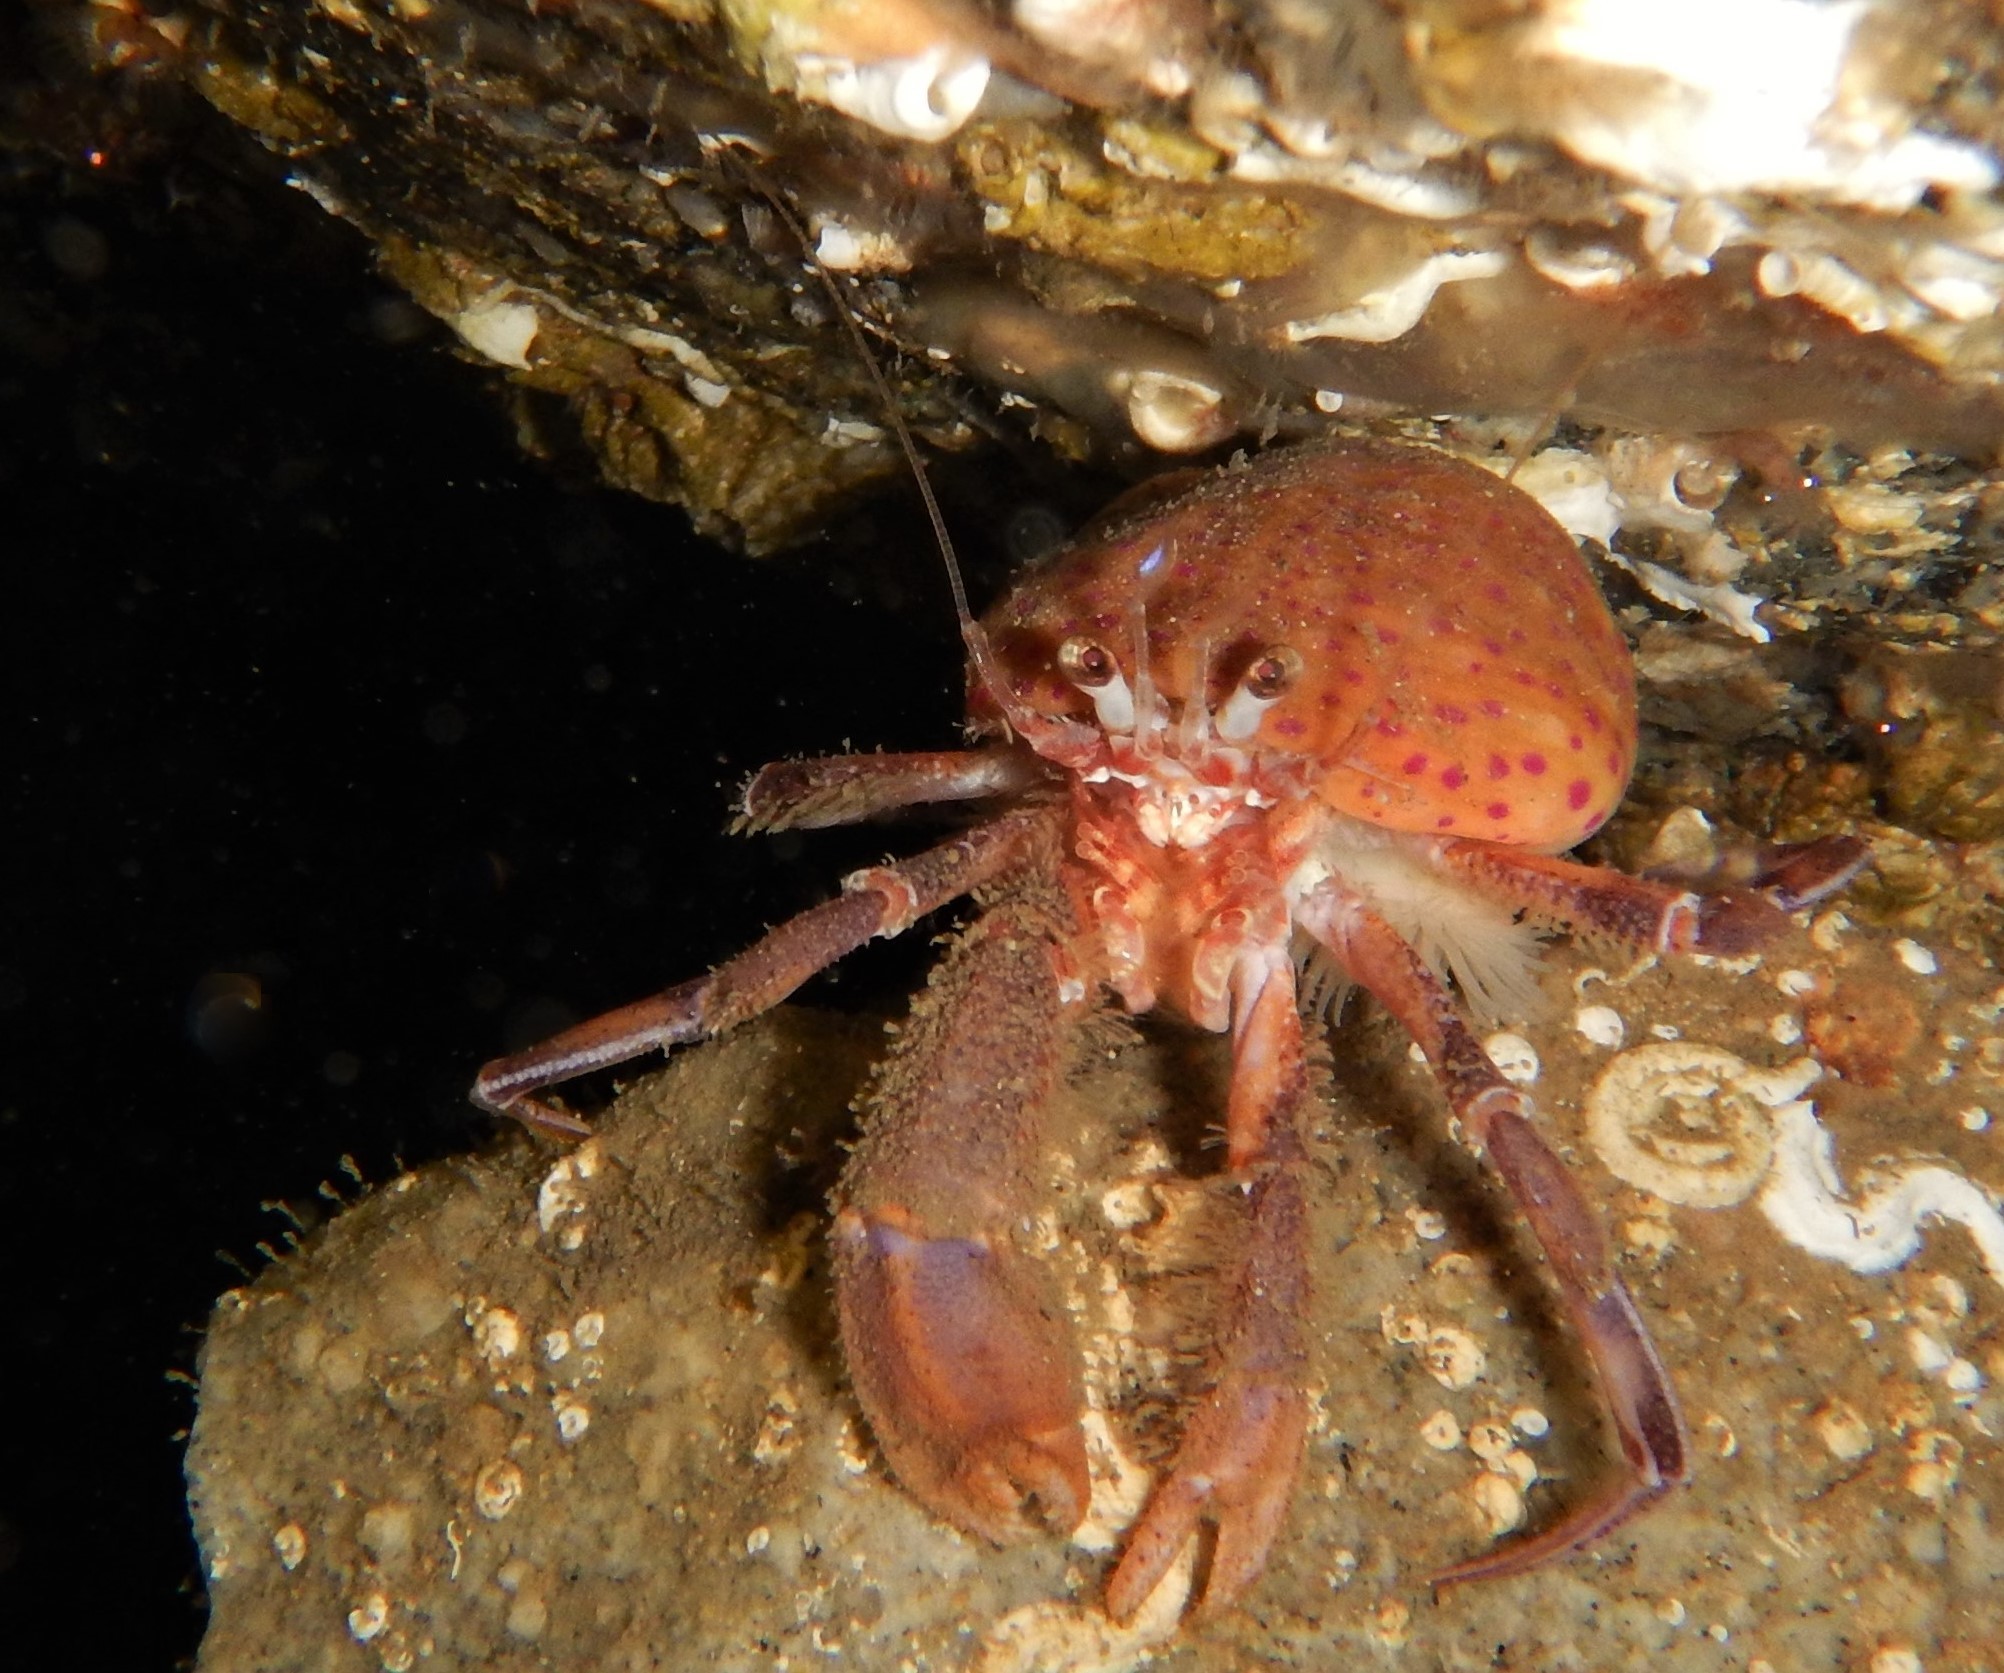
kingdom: Animalia
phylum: Arthropoda
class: Malacostraca
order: Decapoda
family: Paguridae
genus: Pagurus
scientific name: Pagurus prideaux
